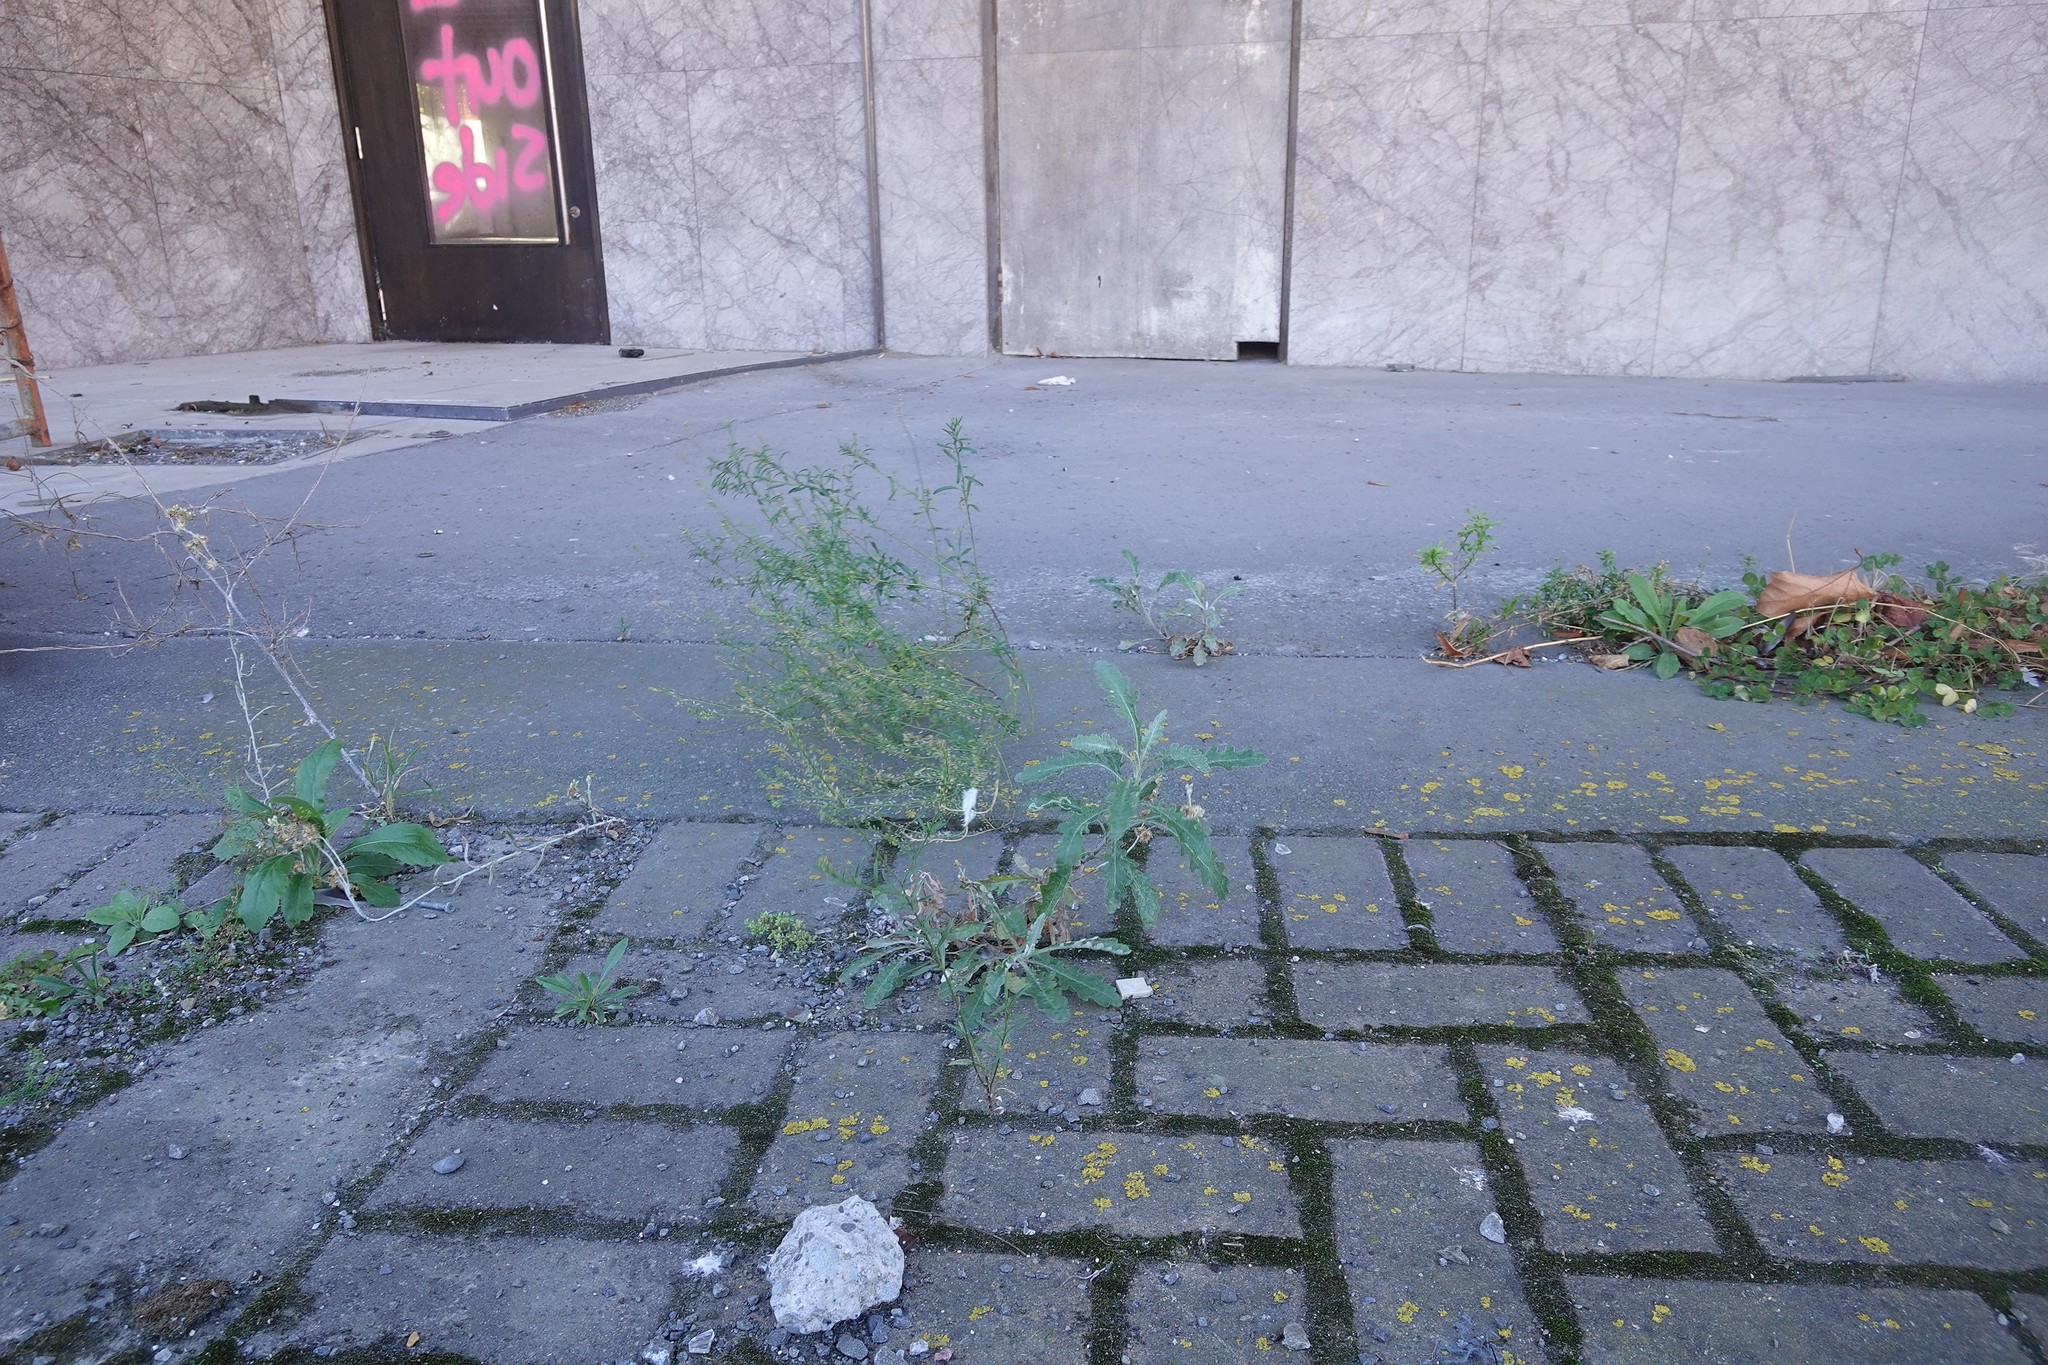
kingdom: Plantae
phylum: Tracheophyta
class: Magnoliopsida
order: Asterales
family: Asteraceae
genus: Senecio
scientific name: Senecio glomeratus
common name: Cutleaf burnweed
